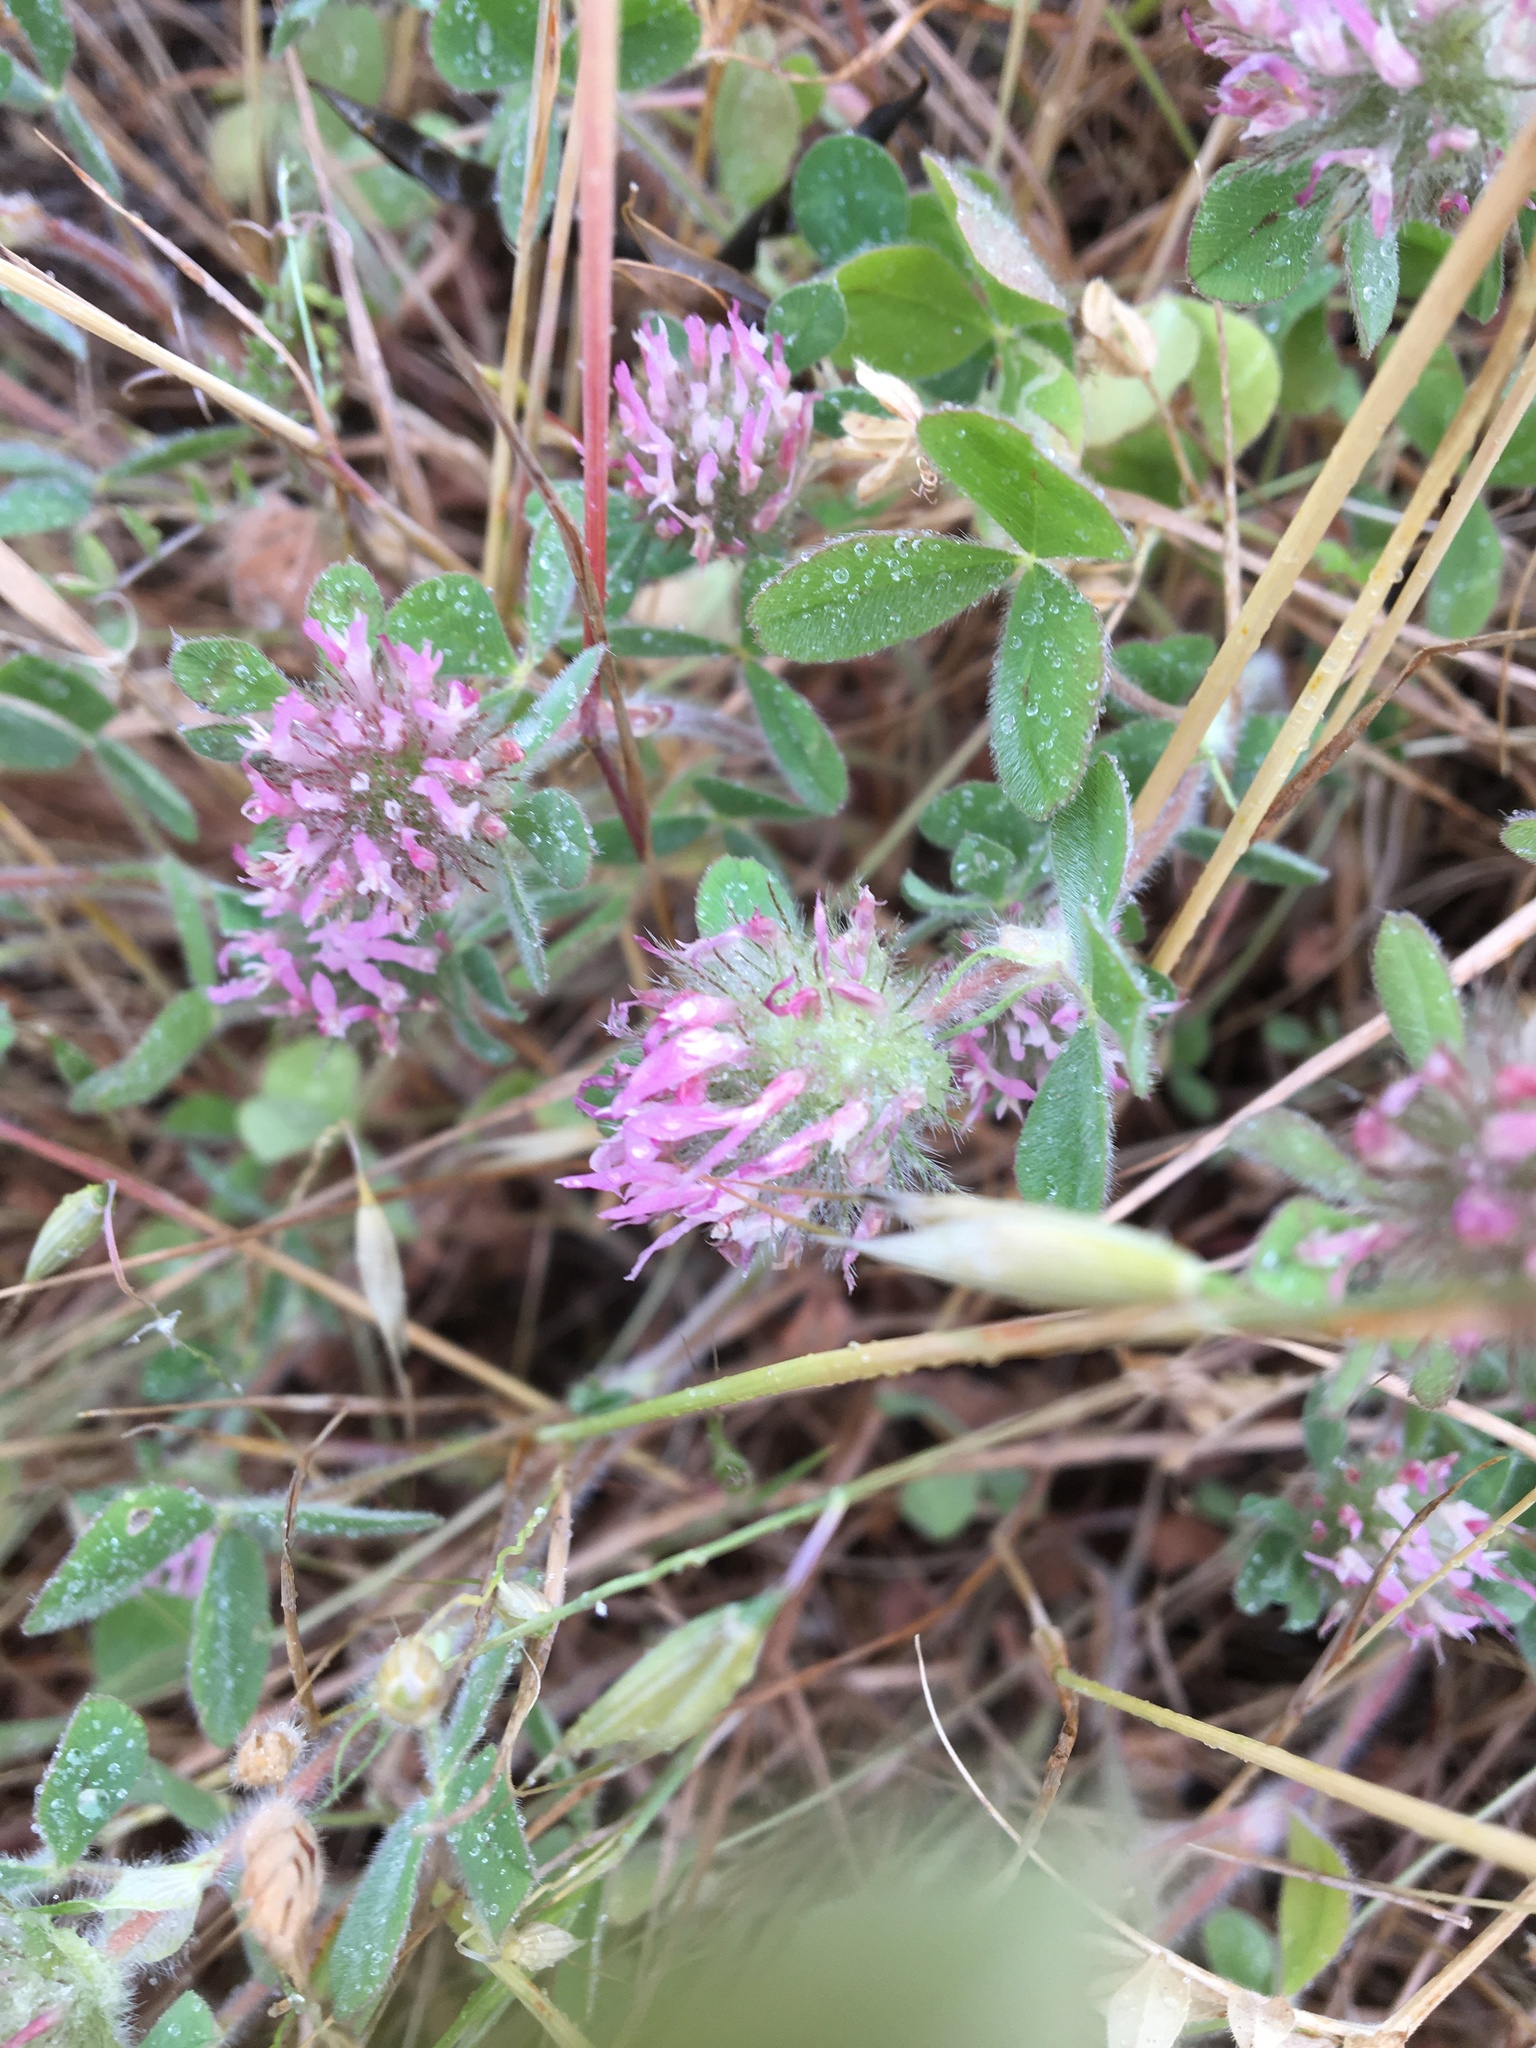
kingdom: Plantae
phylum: Tracheophyta
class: Magnoliopsida
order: Fabales
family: Fabaceae
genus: Trifolium
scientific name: Trifolium hirtum
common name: Rose clover
